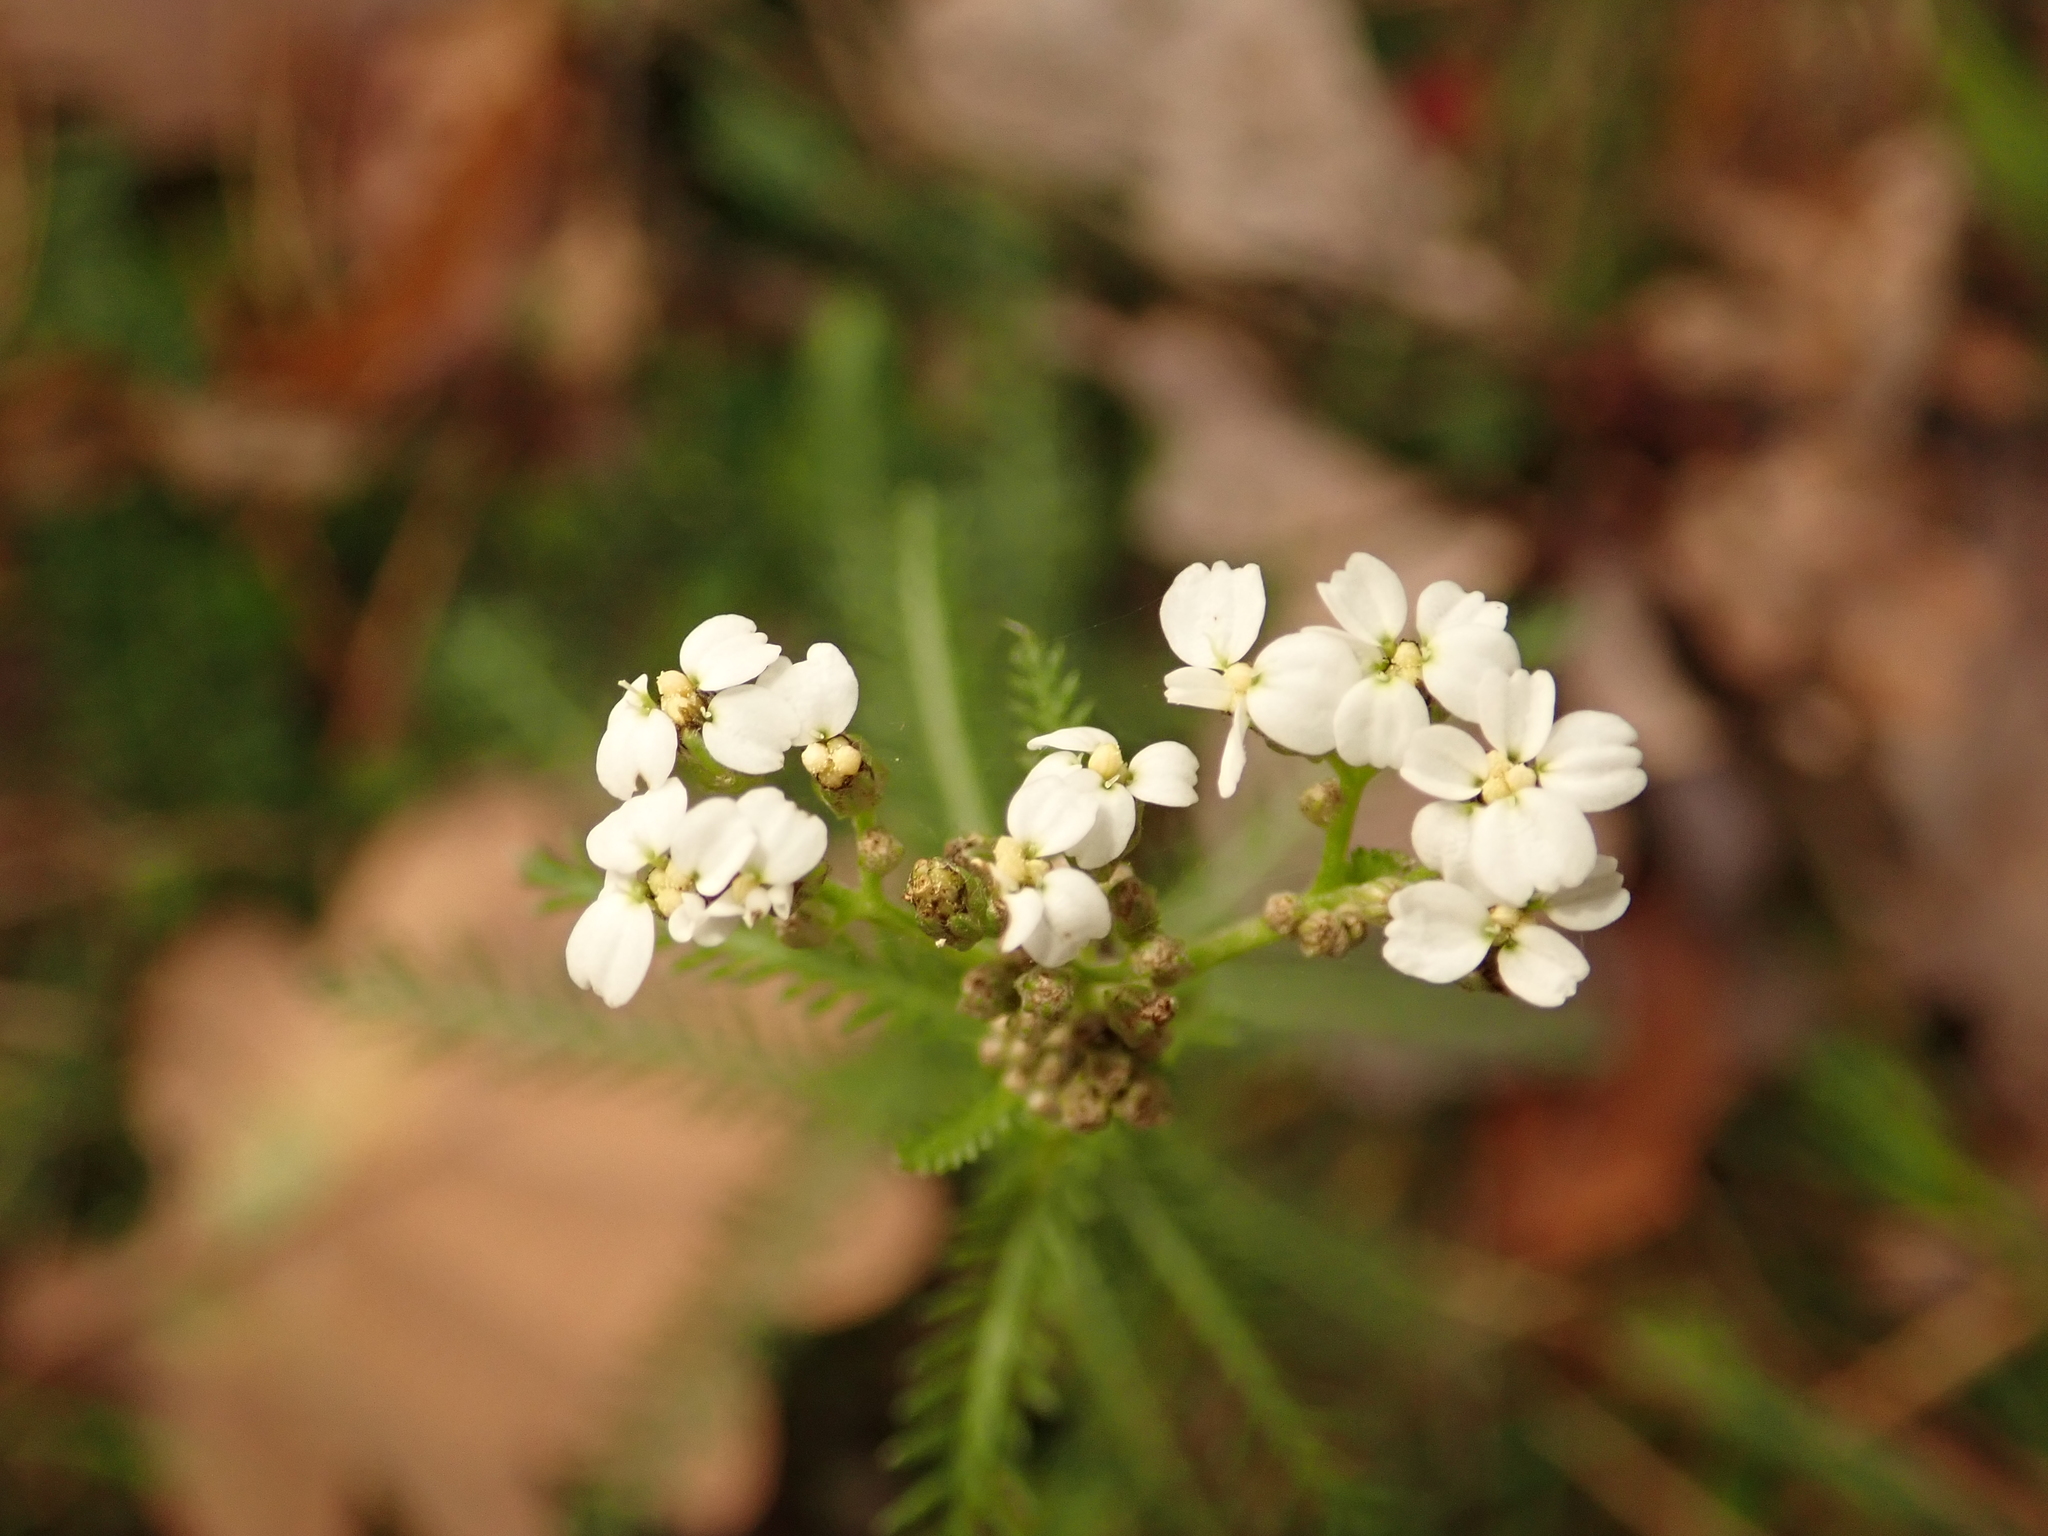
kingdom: Plantae
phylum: Tracheophyta
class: Magnoliopsida
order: Asterales
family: Asteraceae
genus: Achillea
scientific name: Achillea millefolium
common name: Yarrow
